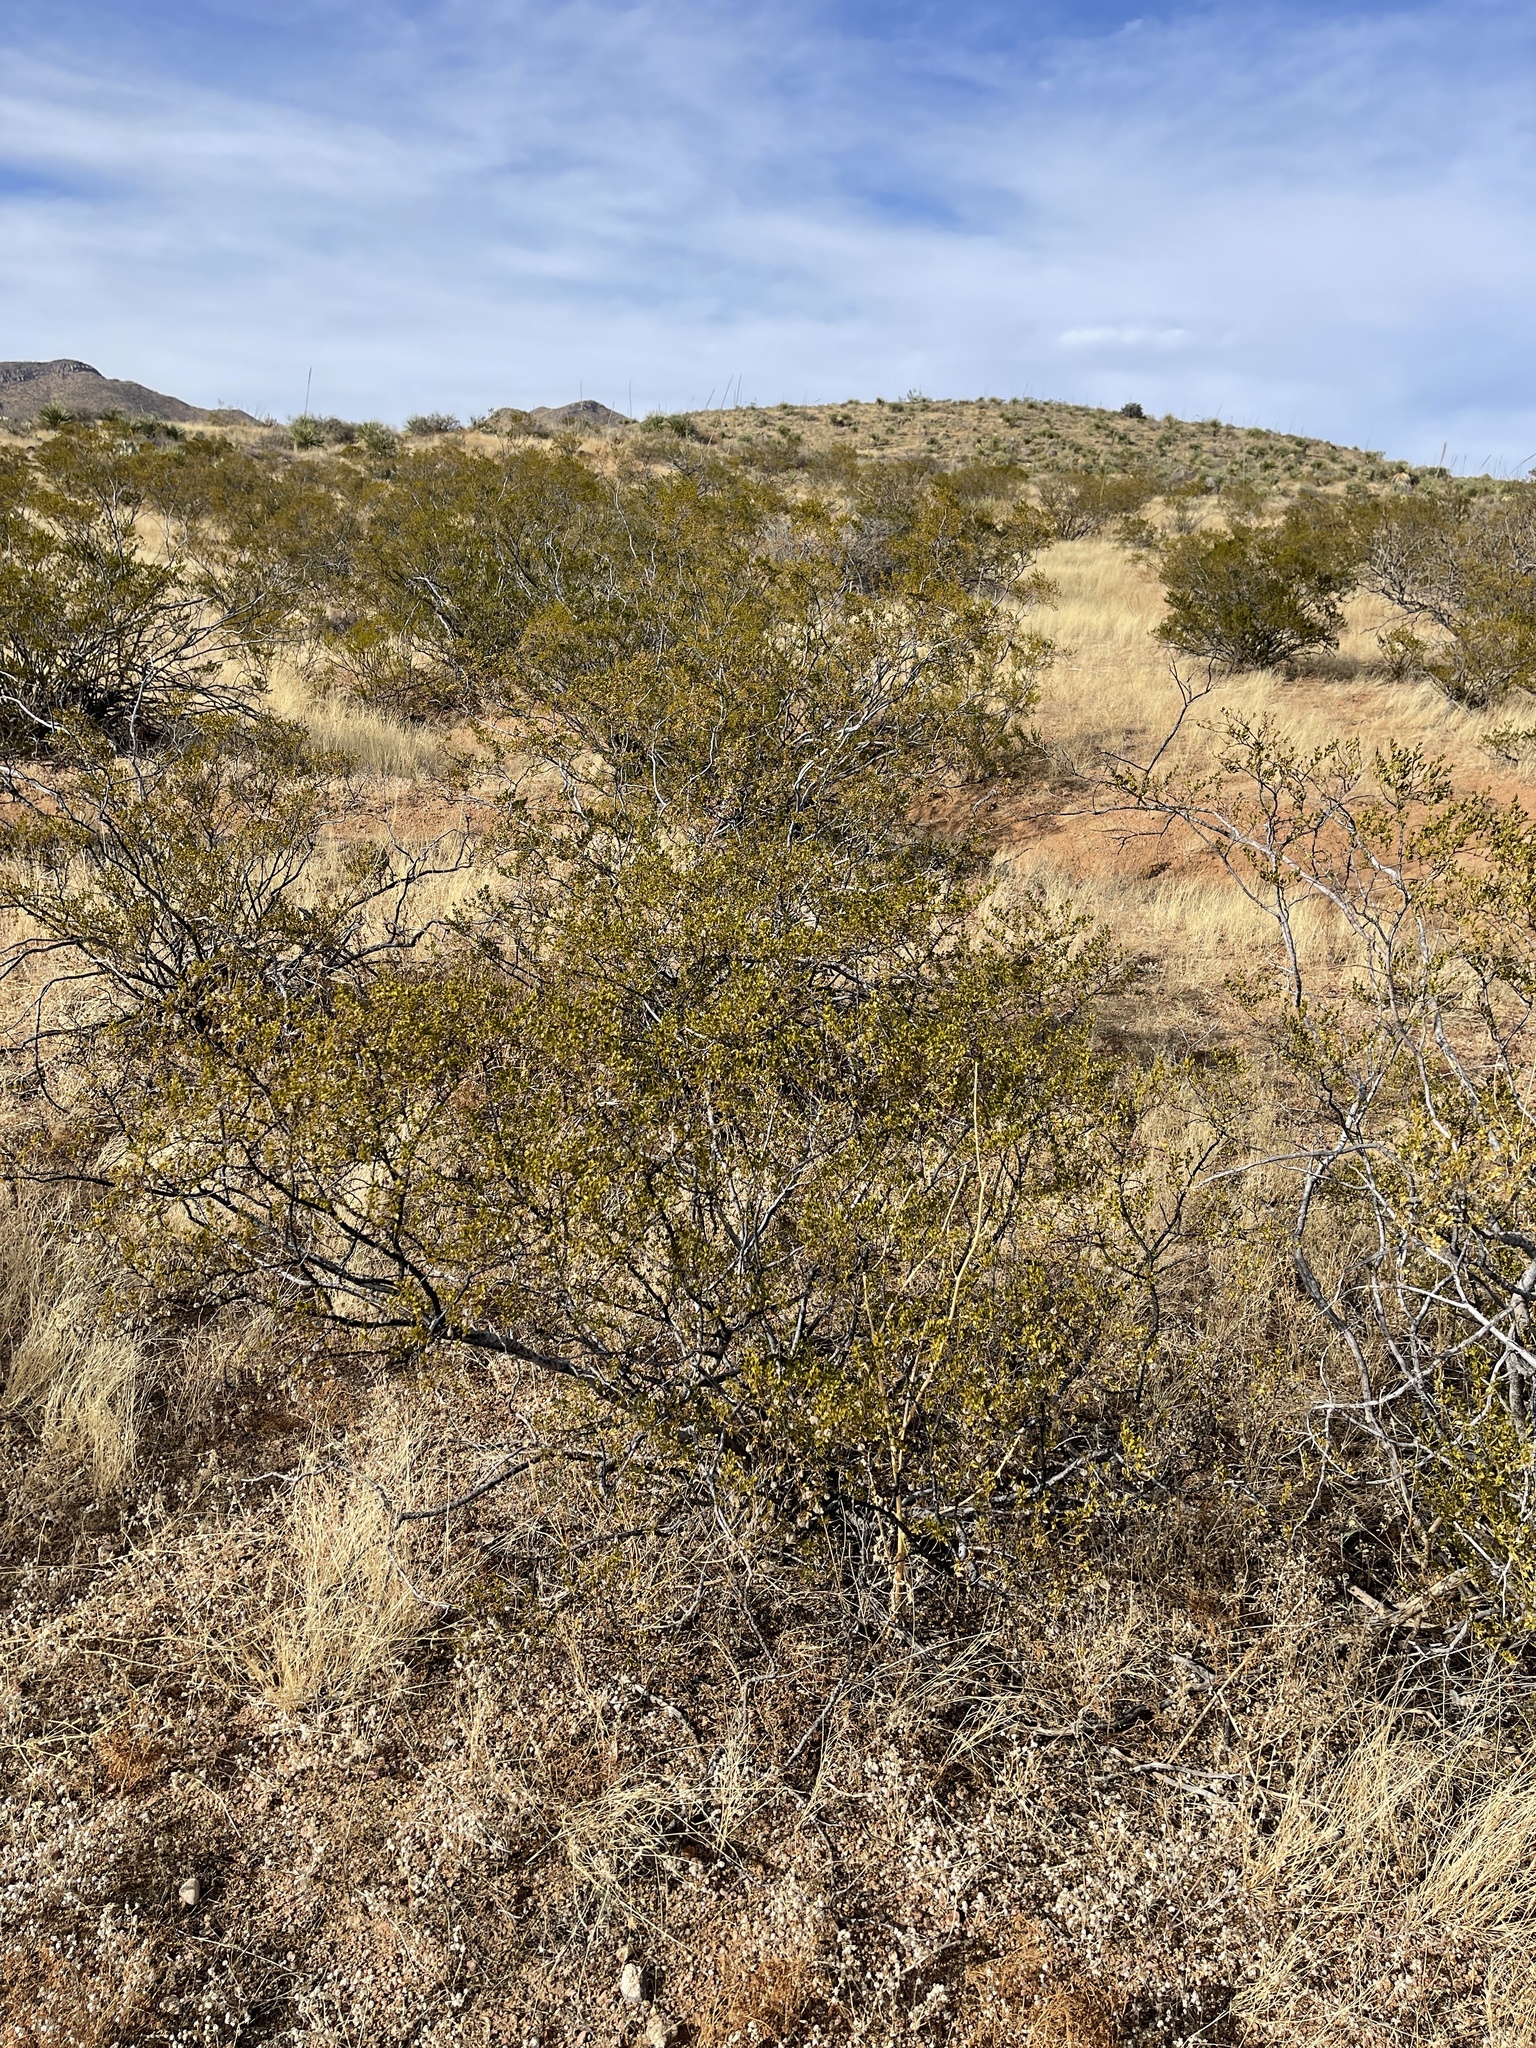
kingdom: Plantae
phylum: Tracheophyta
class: Magnoliopsida
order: Zygophyllales
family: Zygophyllaceae
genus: Larrea
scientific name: Larrea tridentata
